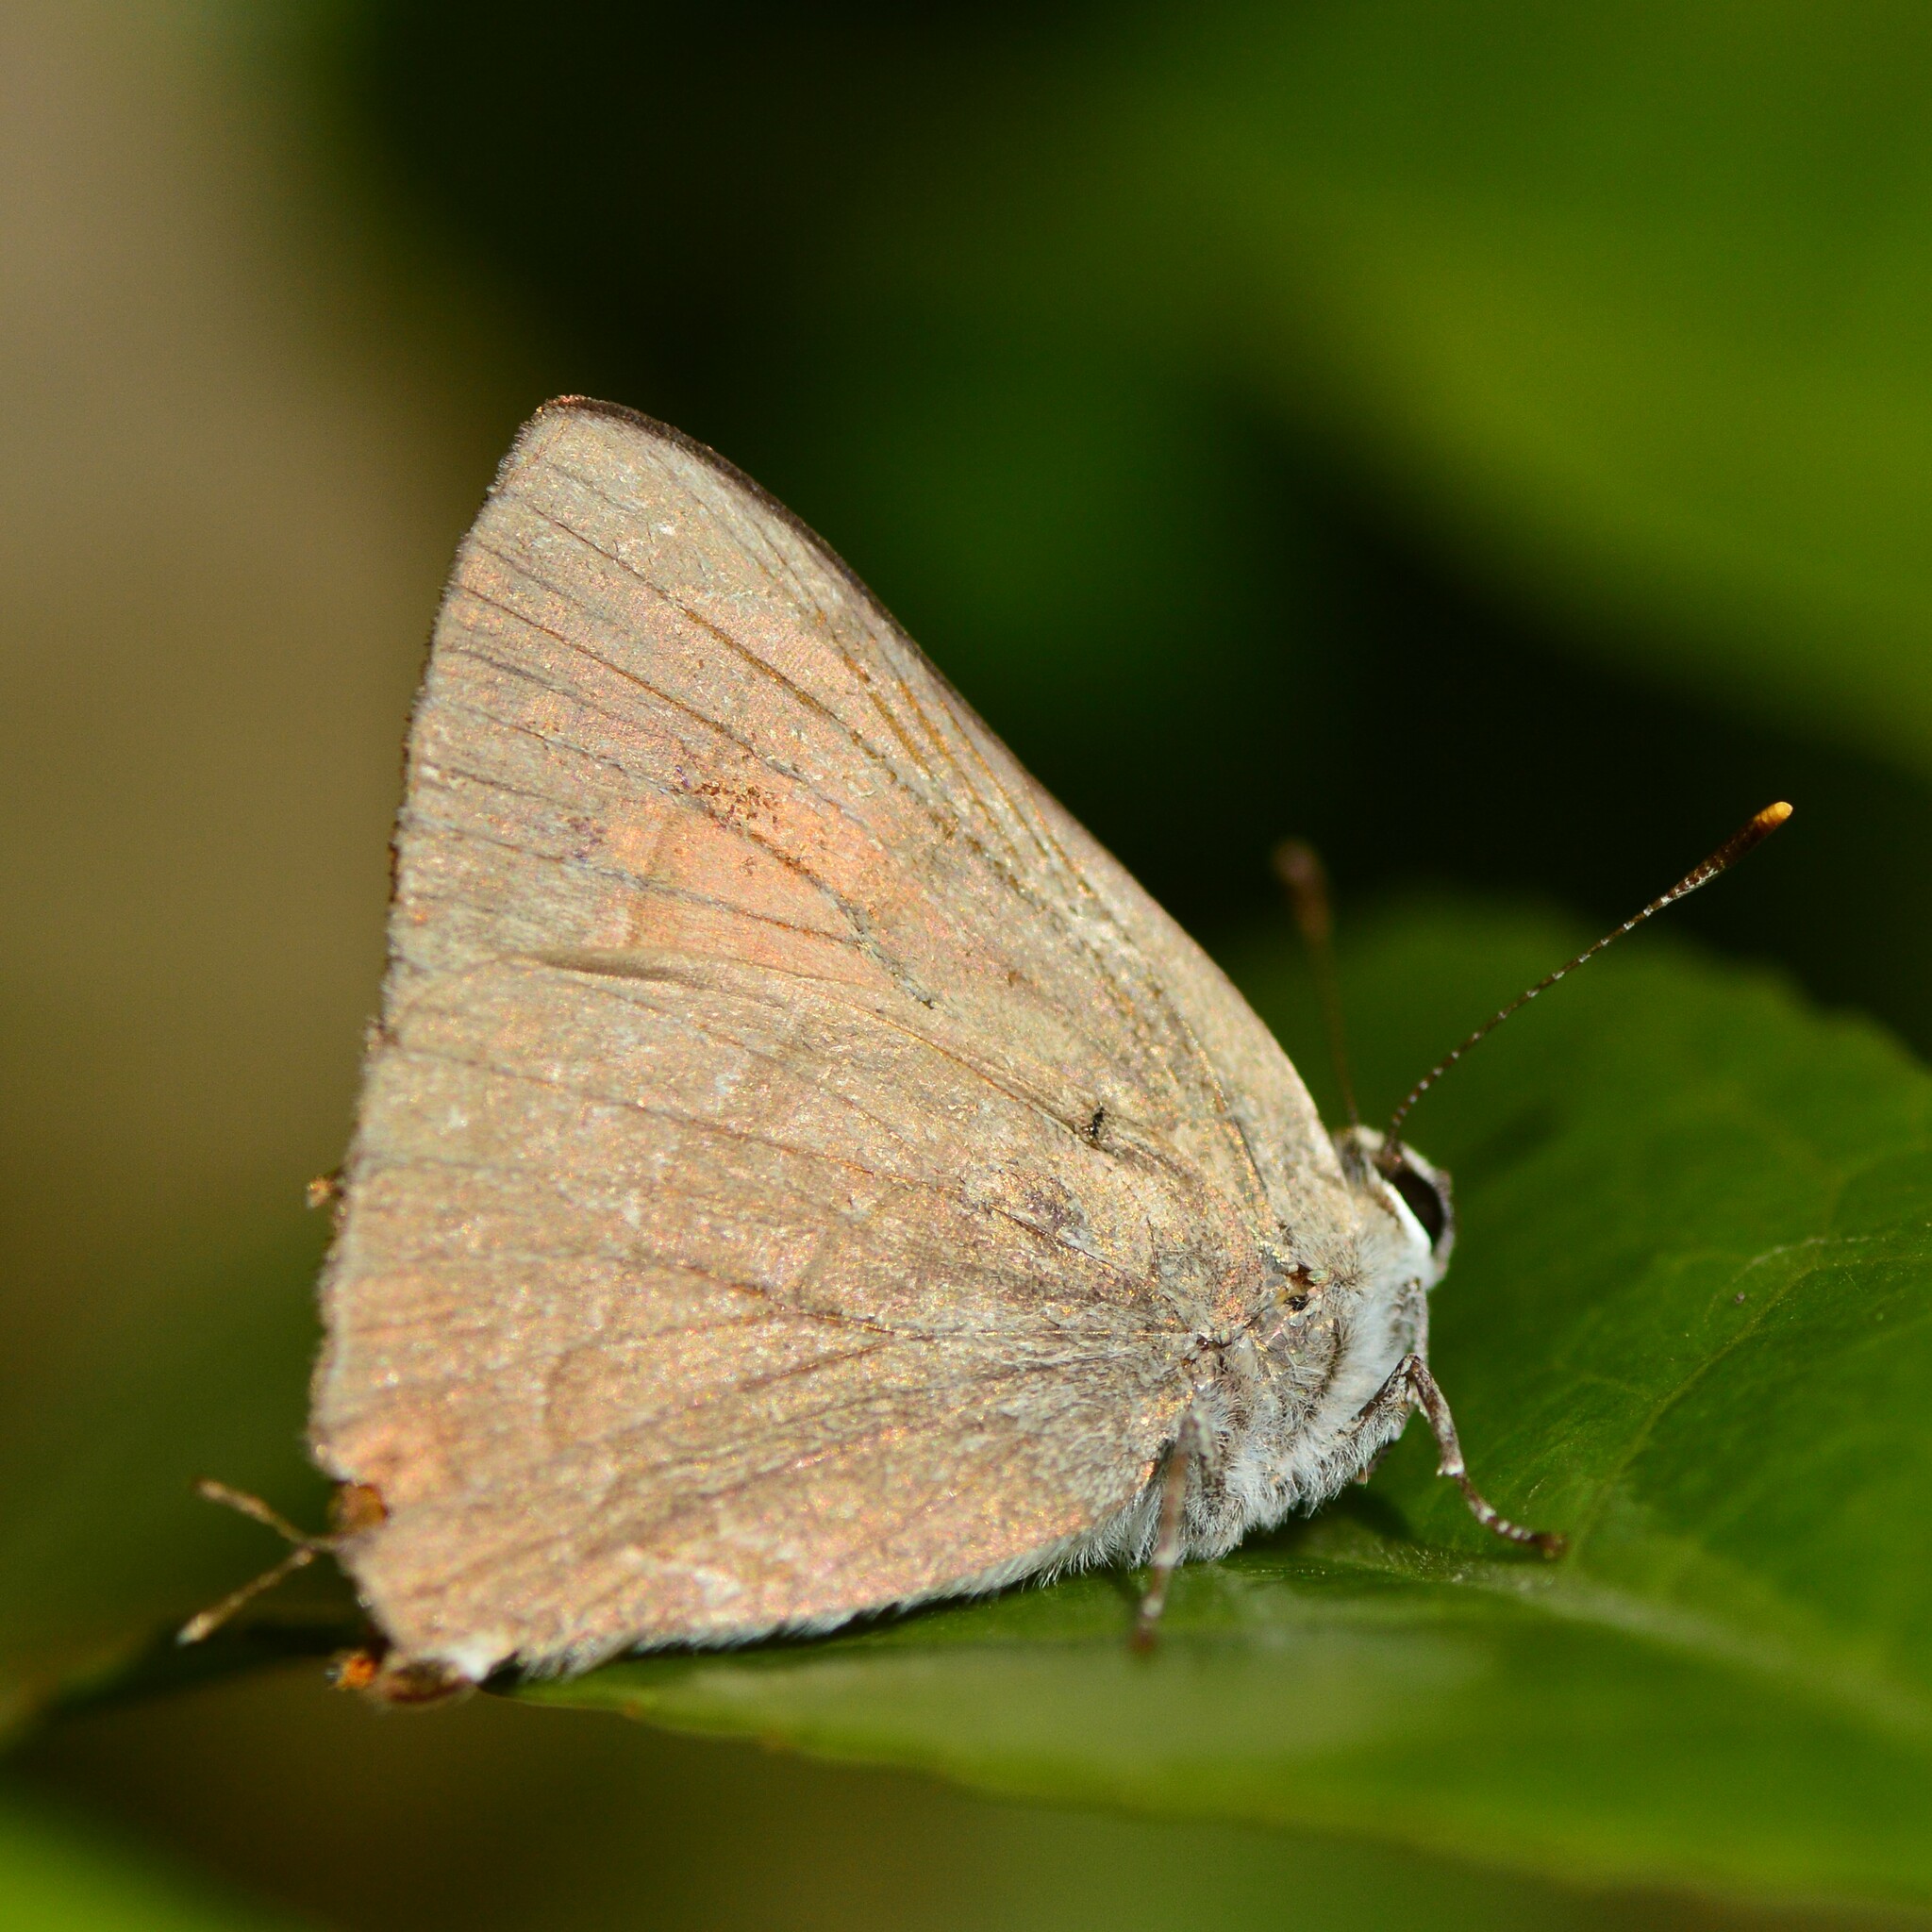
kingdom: Animalia
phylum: Arthropoda
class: Insecta
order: Lepidoptera
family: Lycaenidae
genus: Rapala
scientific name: Rapala selira
